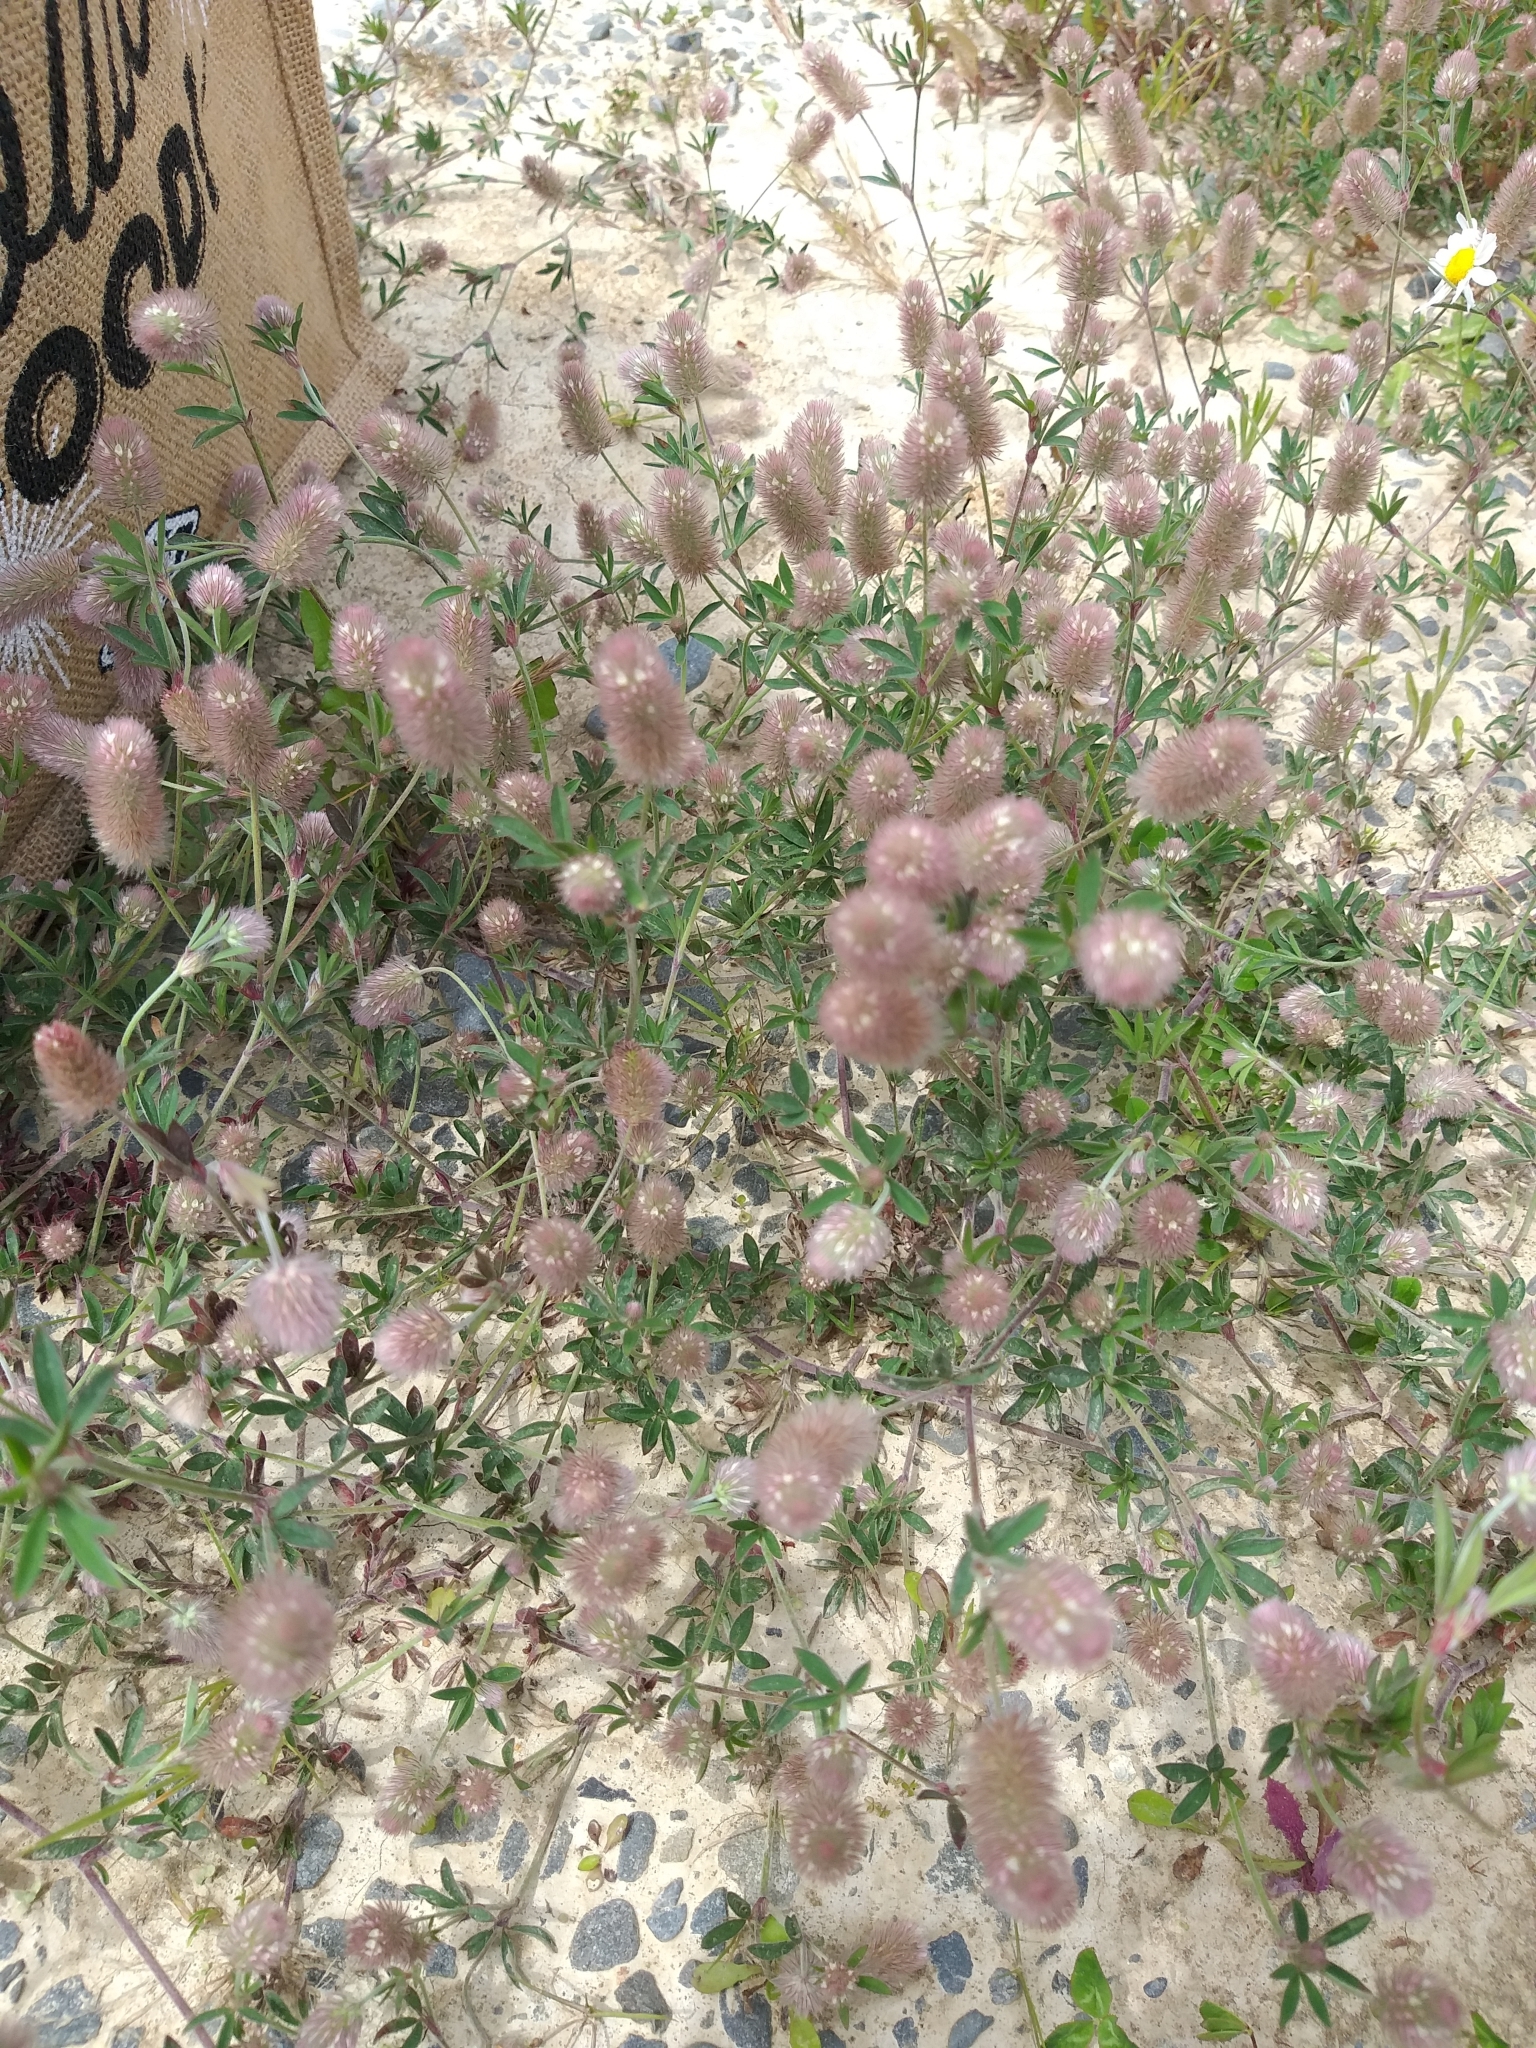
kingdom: Plantae
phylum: Tracheophyta
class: Magnoliopsida
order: Fabales
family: Fabaceae
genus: Trifolium
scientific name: Trifolium arvense
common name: Hare's-foot clover
